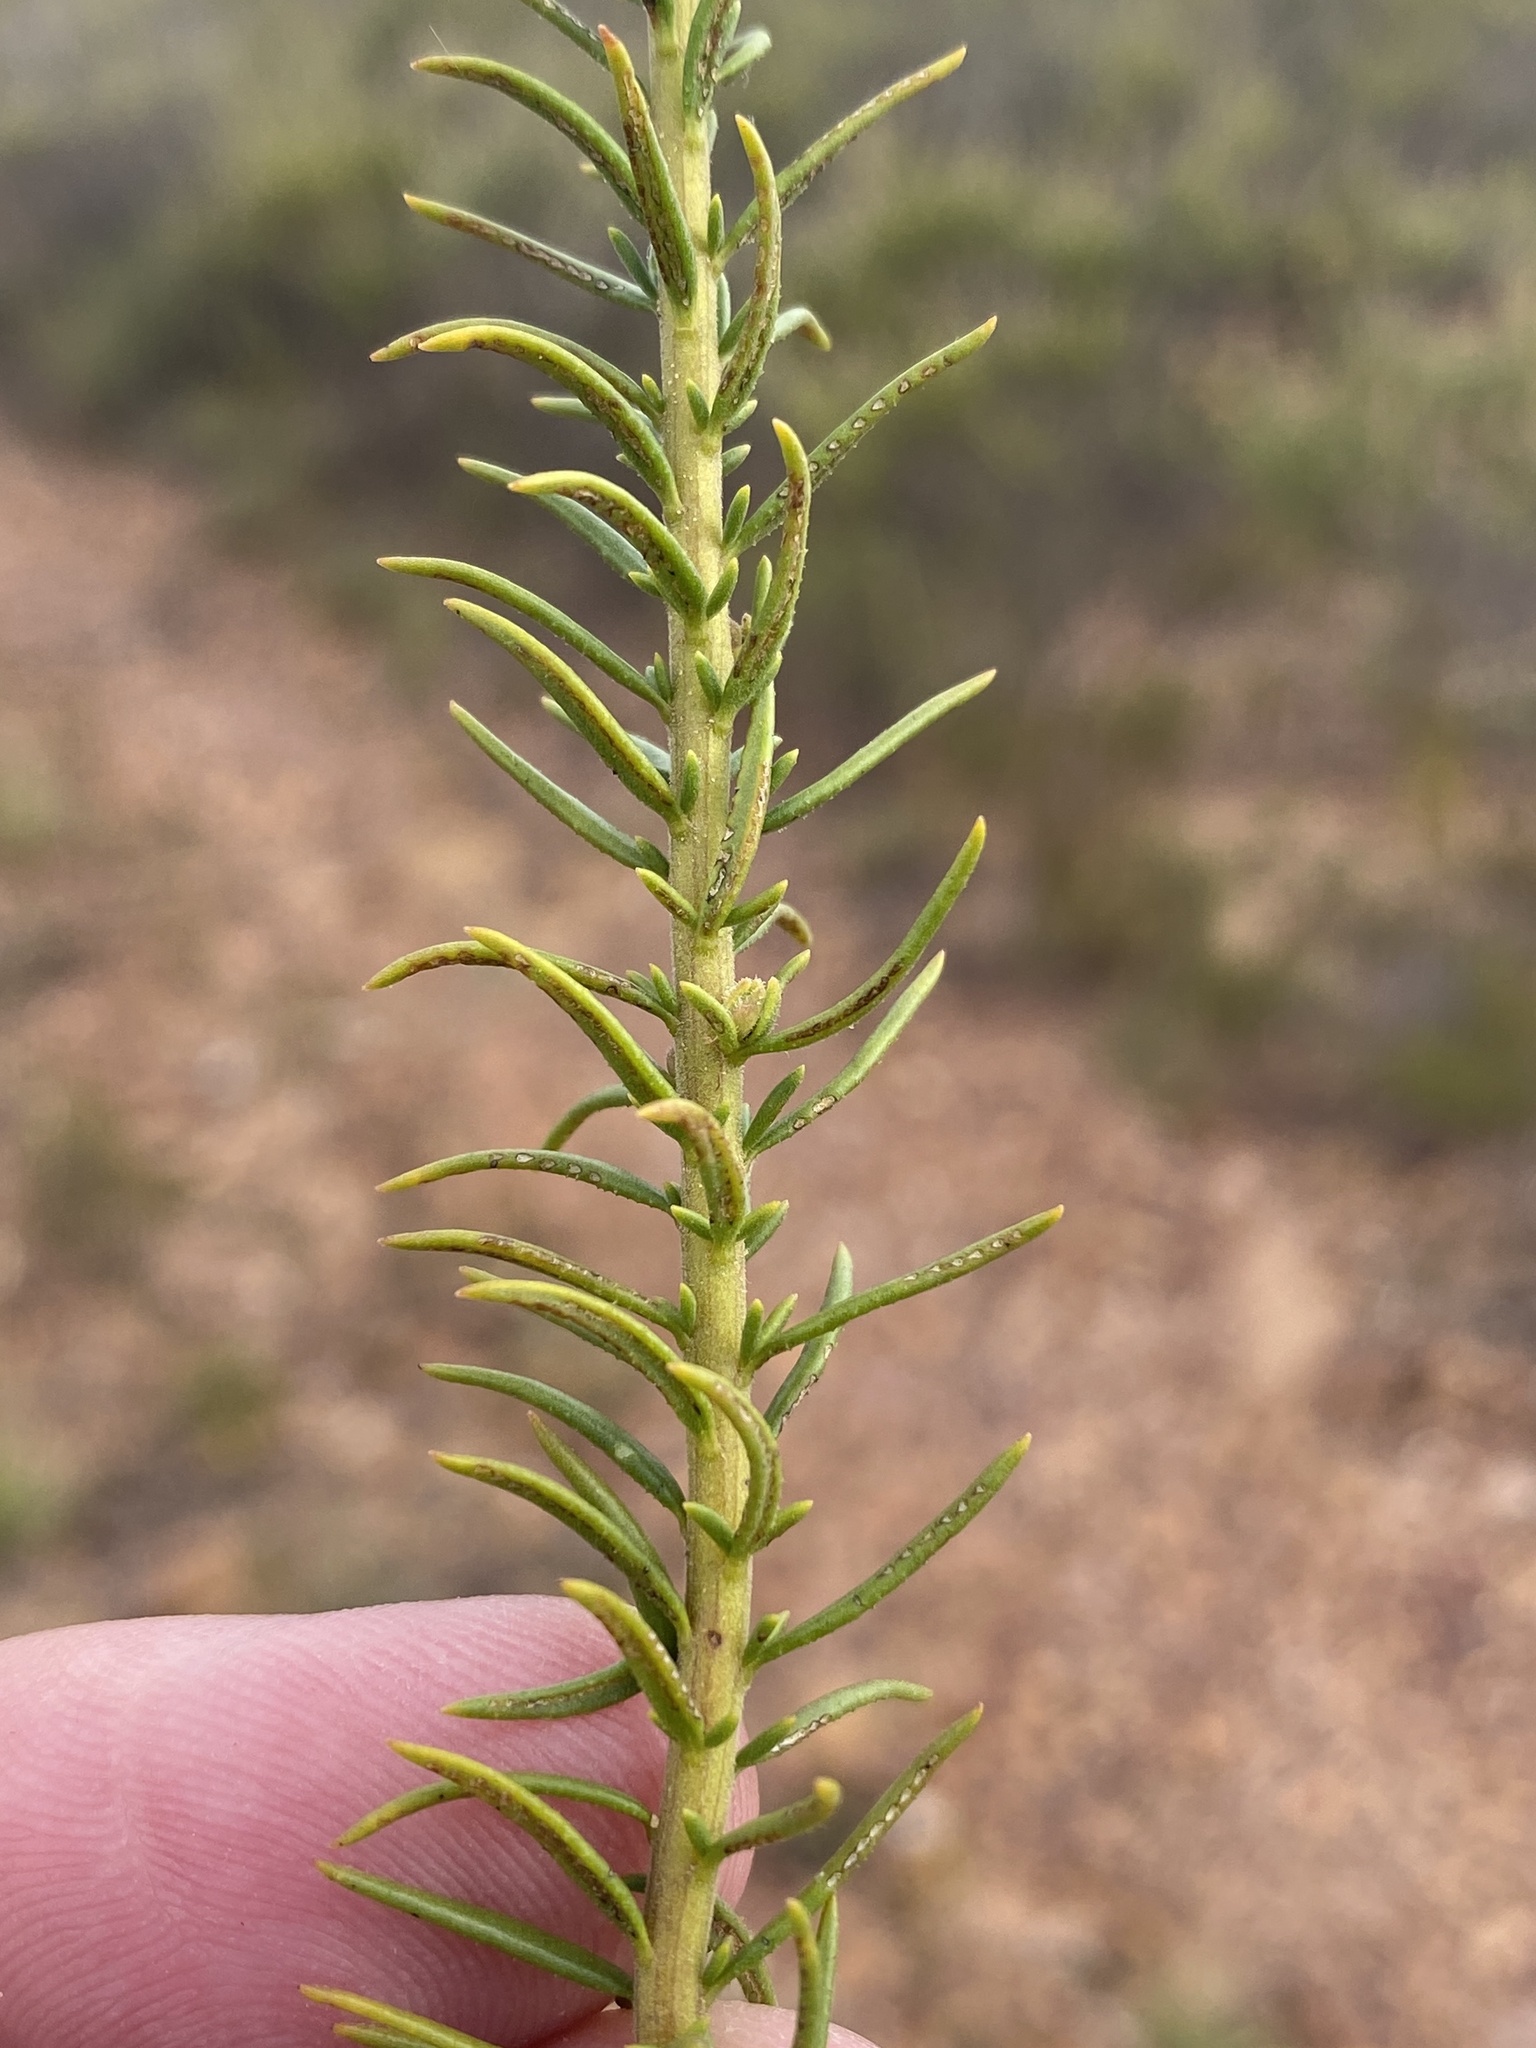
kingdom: Plantae
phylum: Tracheophyta
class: Magnoliopsida
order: Lamiales
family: Scrophulariaceae
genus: Selago
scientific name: Selago mundii
